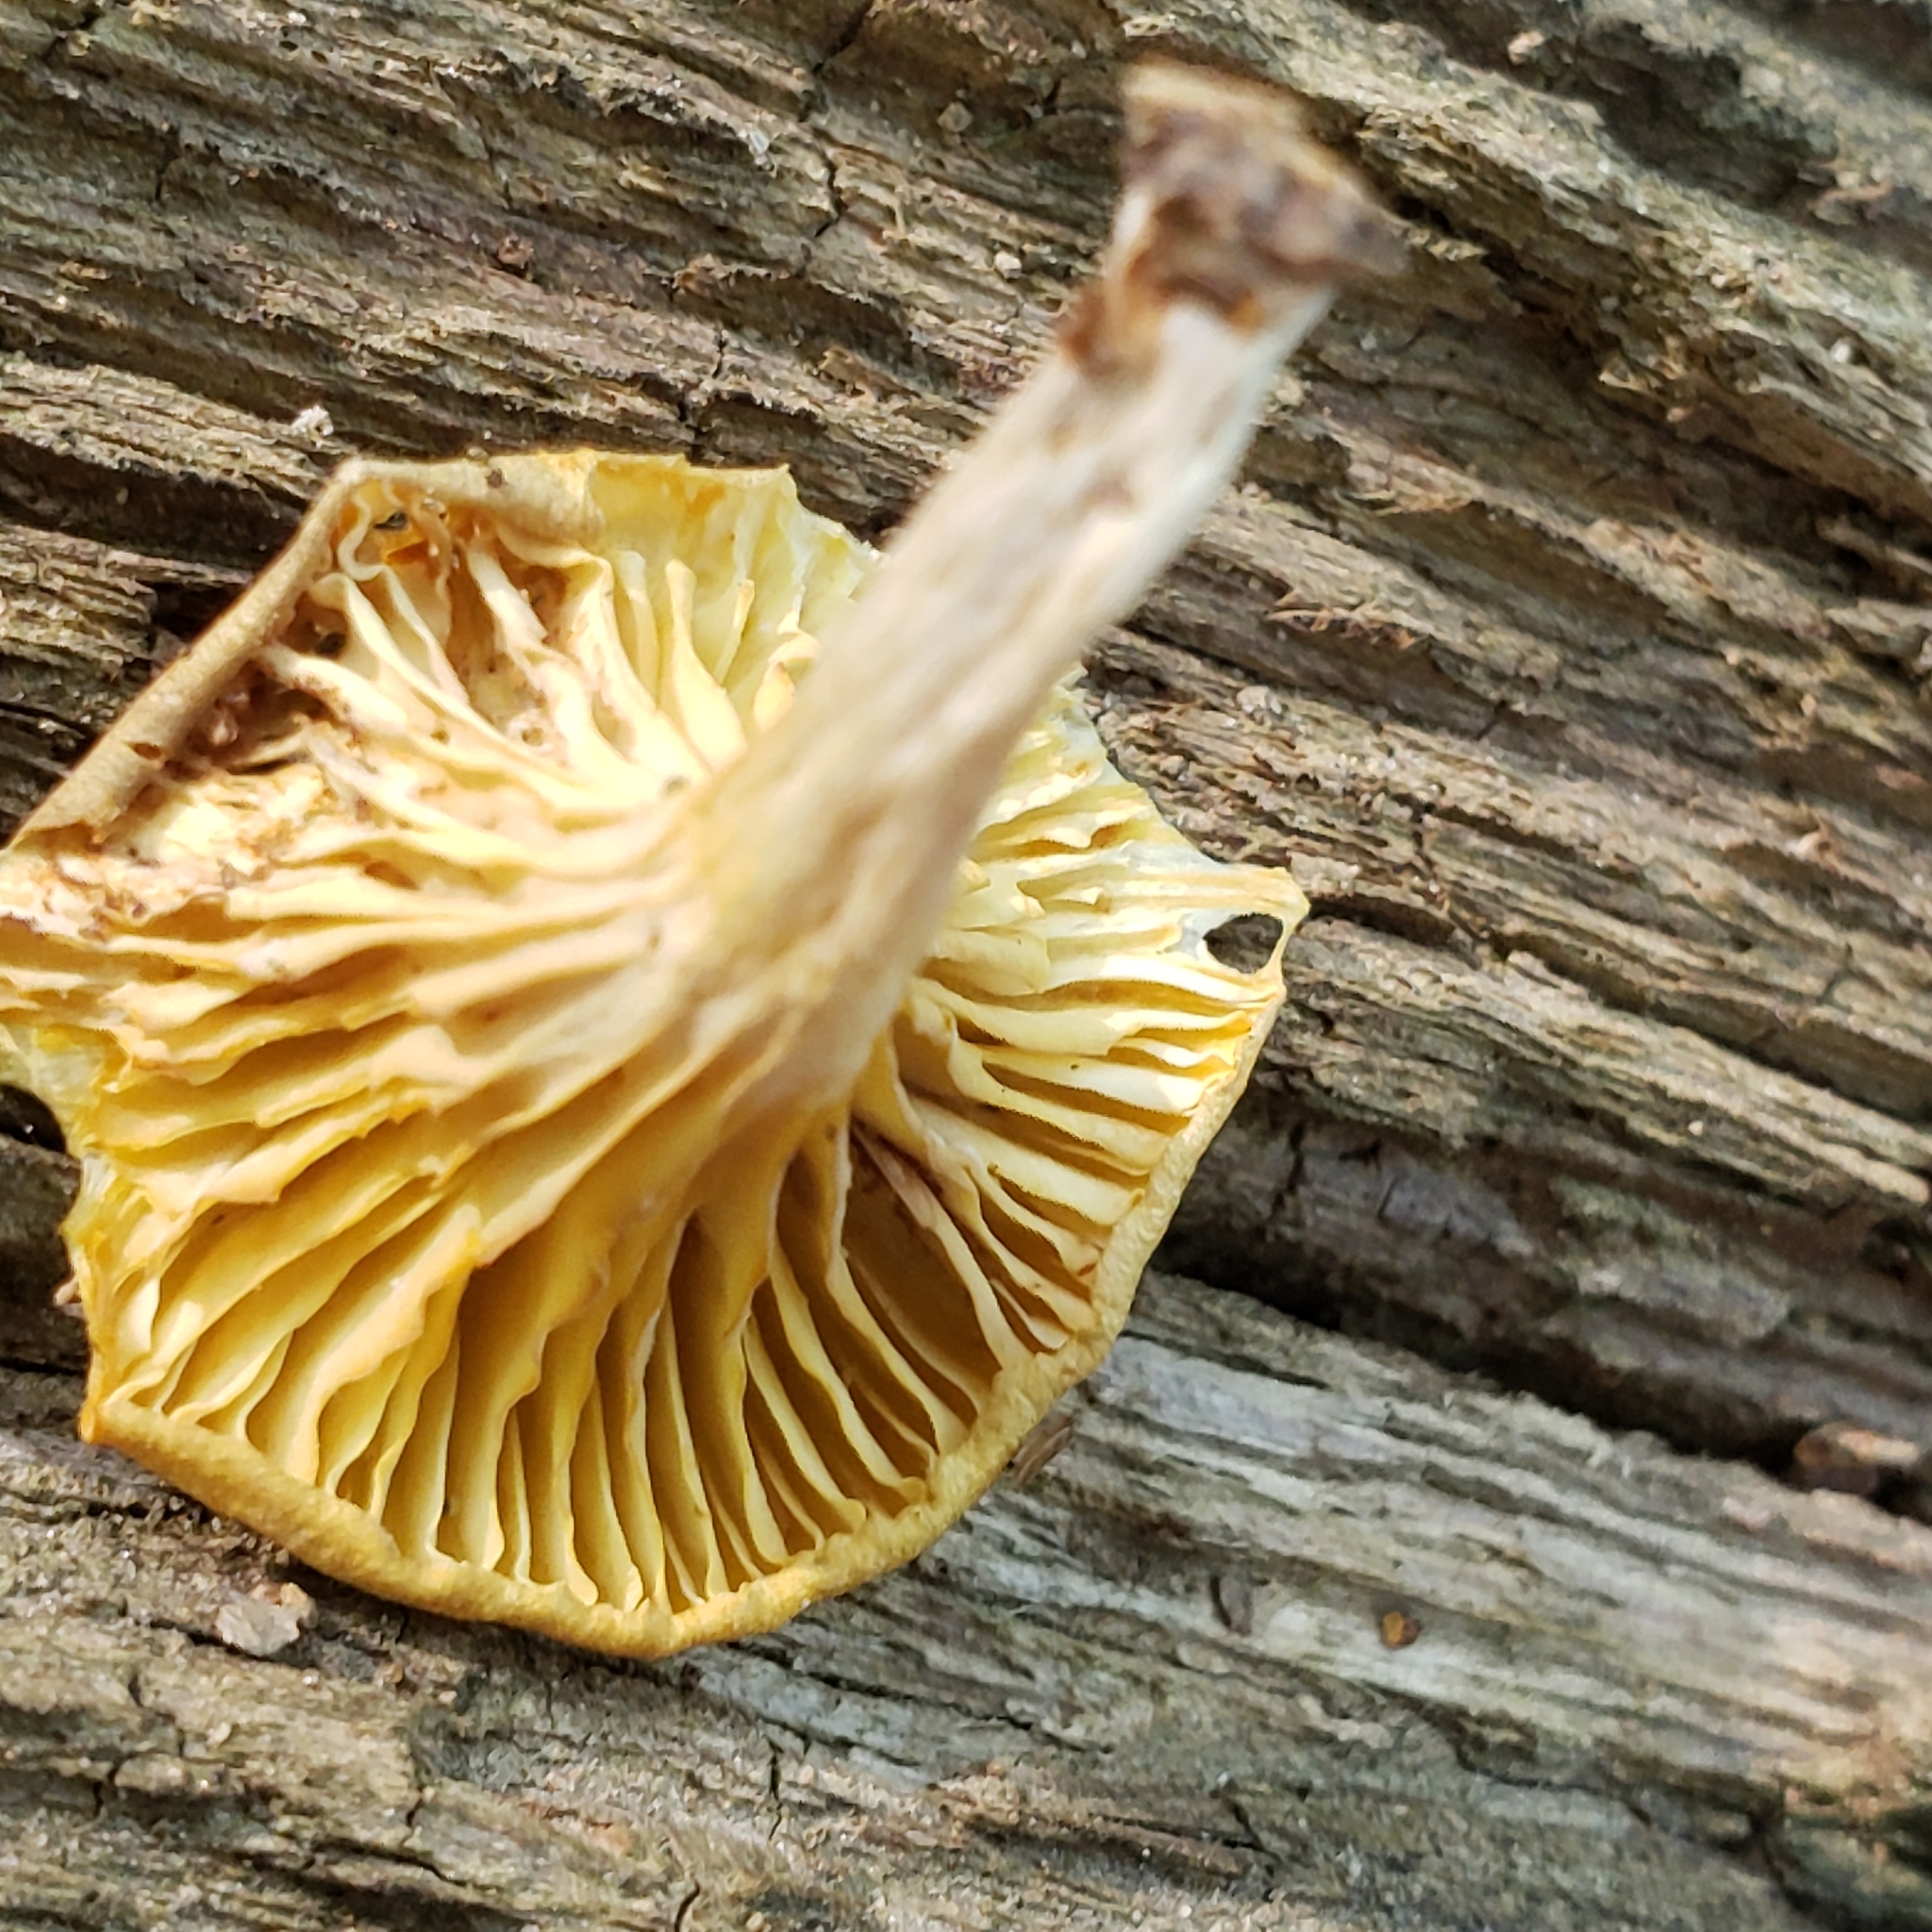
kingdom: Fungi
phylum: Basidiomycota
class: Agaricomycetes
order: Agaricales
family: Marasmiaceae
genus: Gerronema
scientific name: Gerronema strombodes
